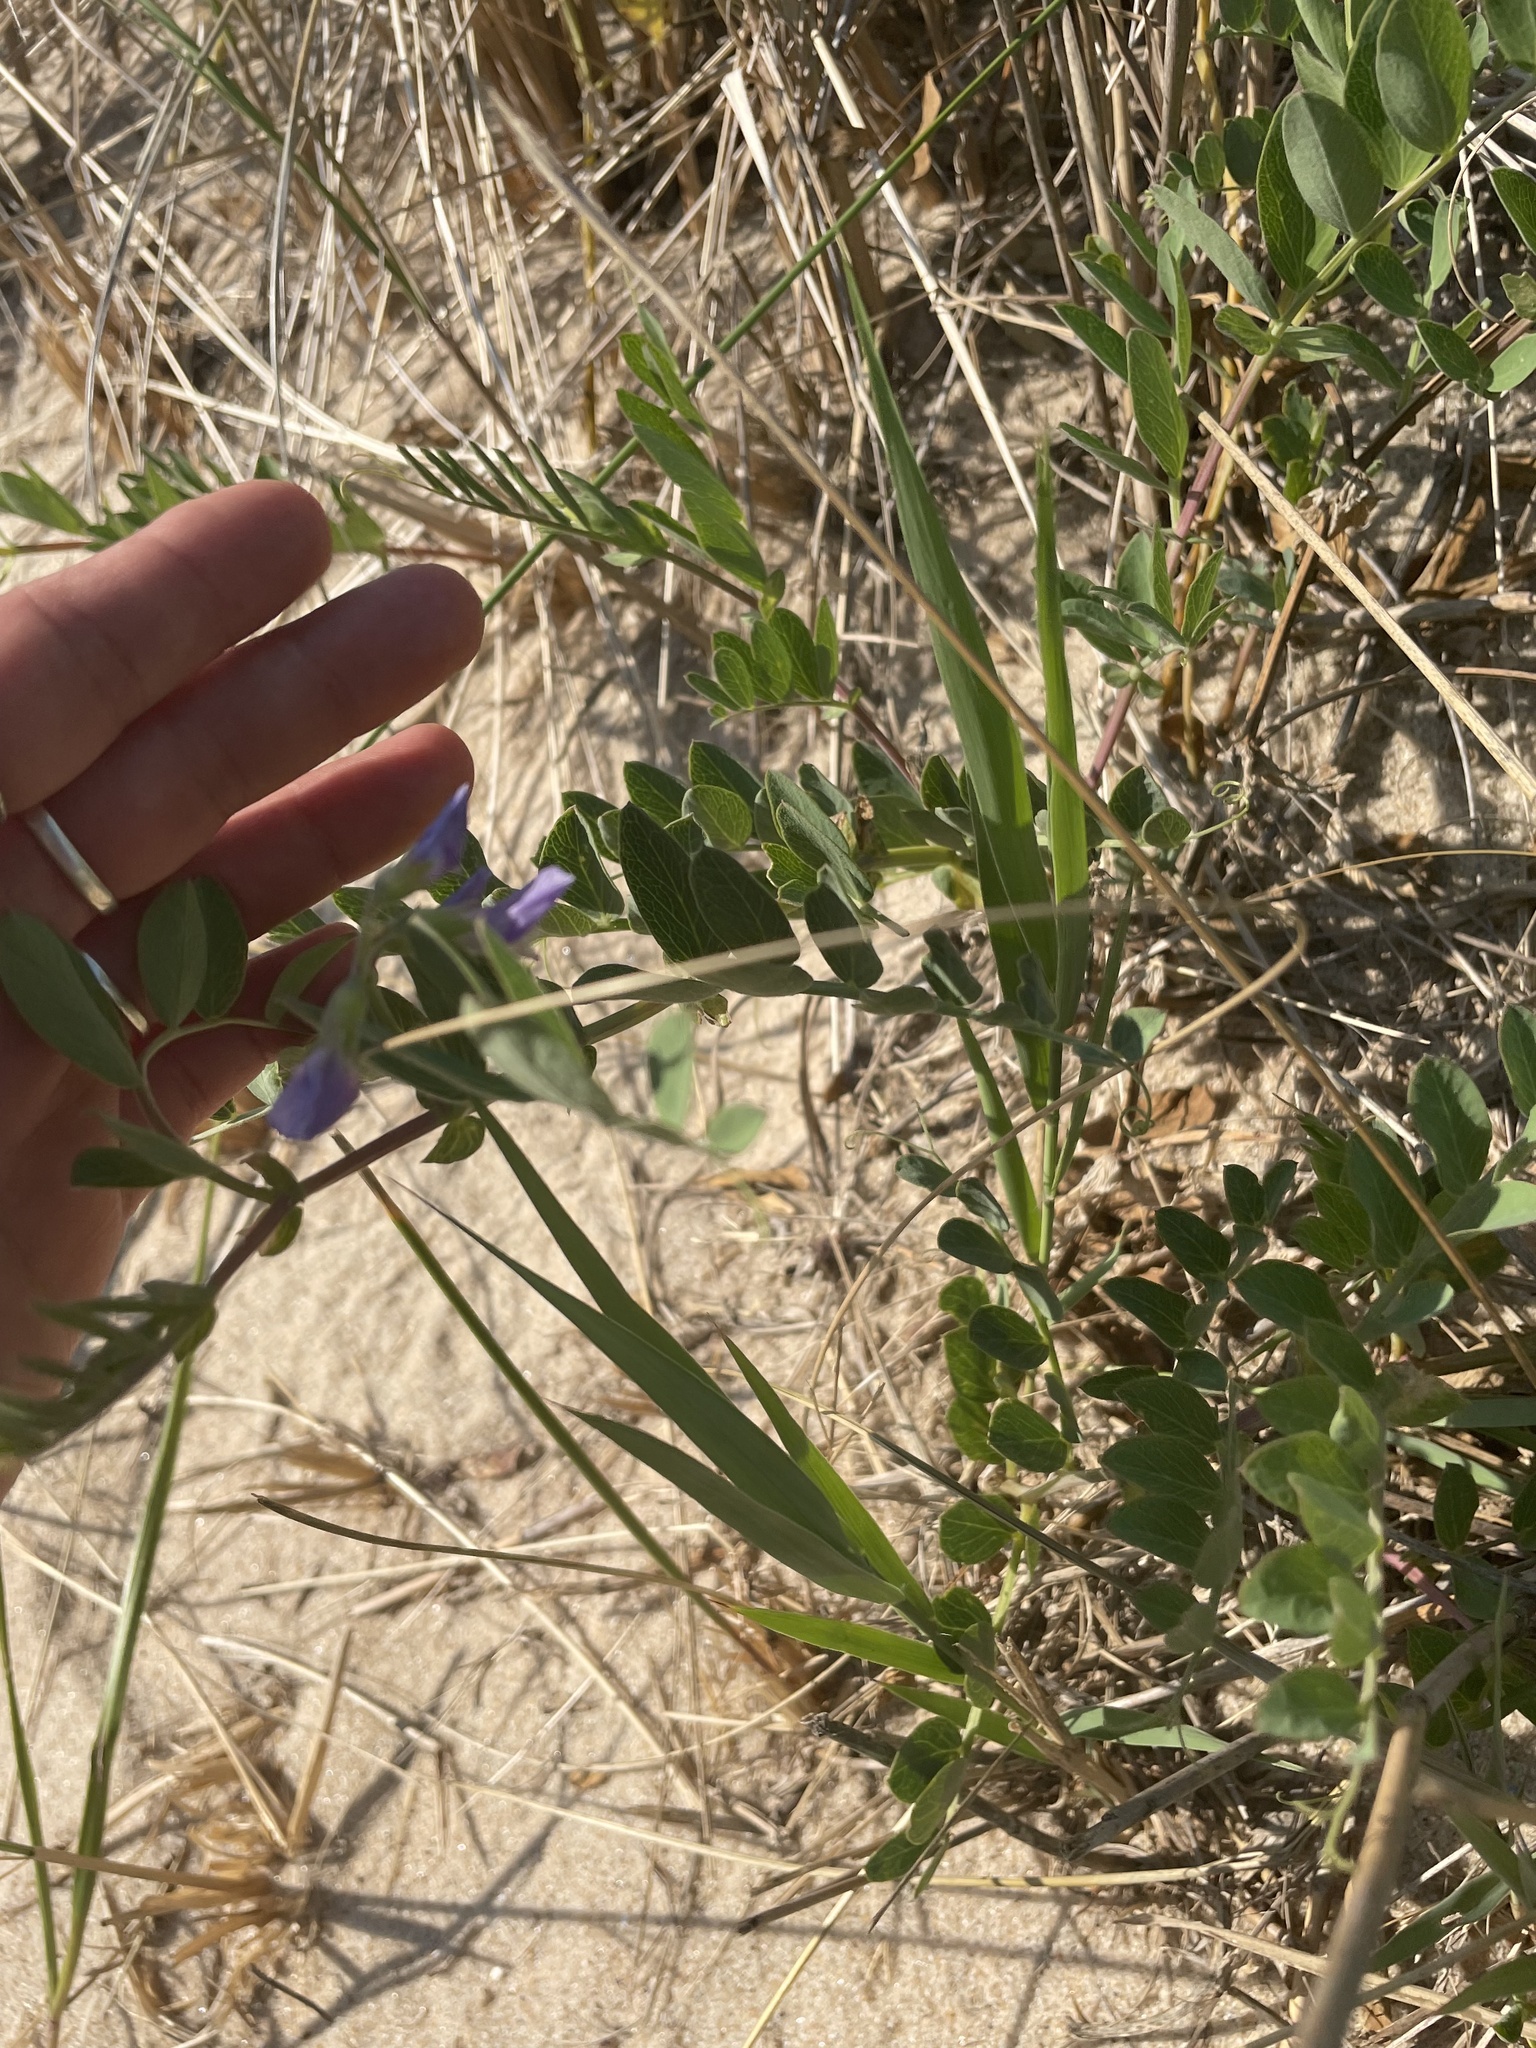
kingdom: Plantae
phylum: Tracheophyta
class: Magnoliopsida
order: Fabales
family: Fabaceae
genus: Lathyrus
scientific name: Lathyrus japonicus
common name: Sea pea
